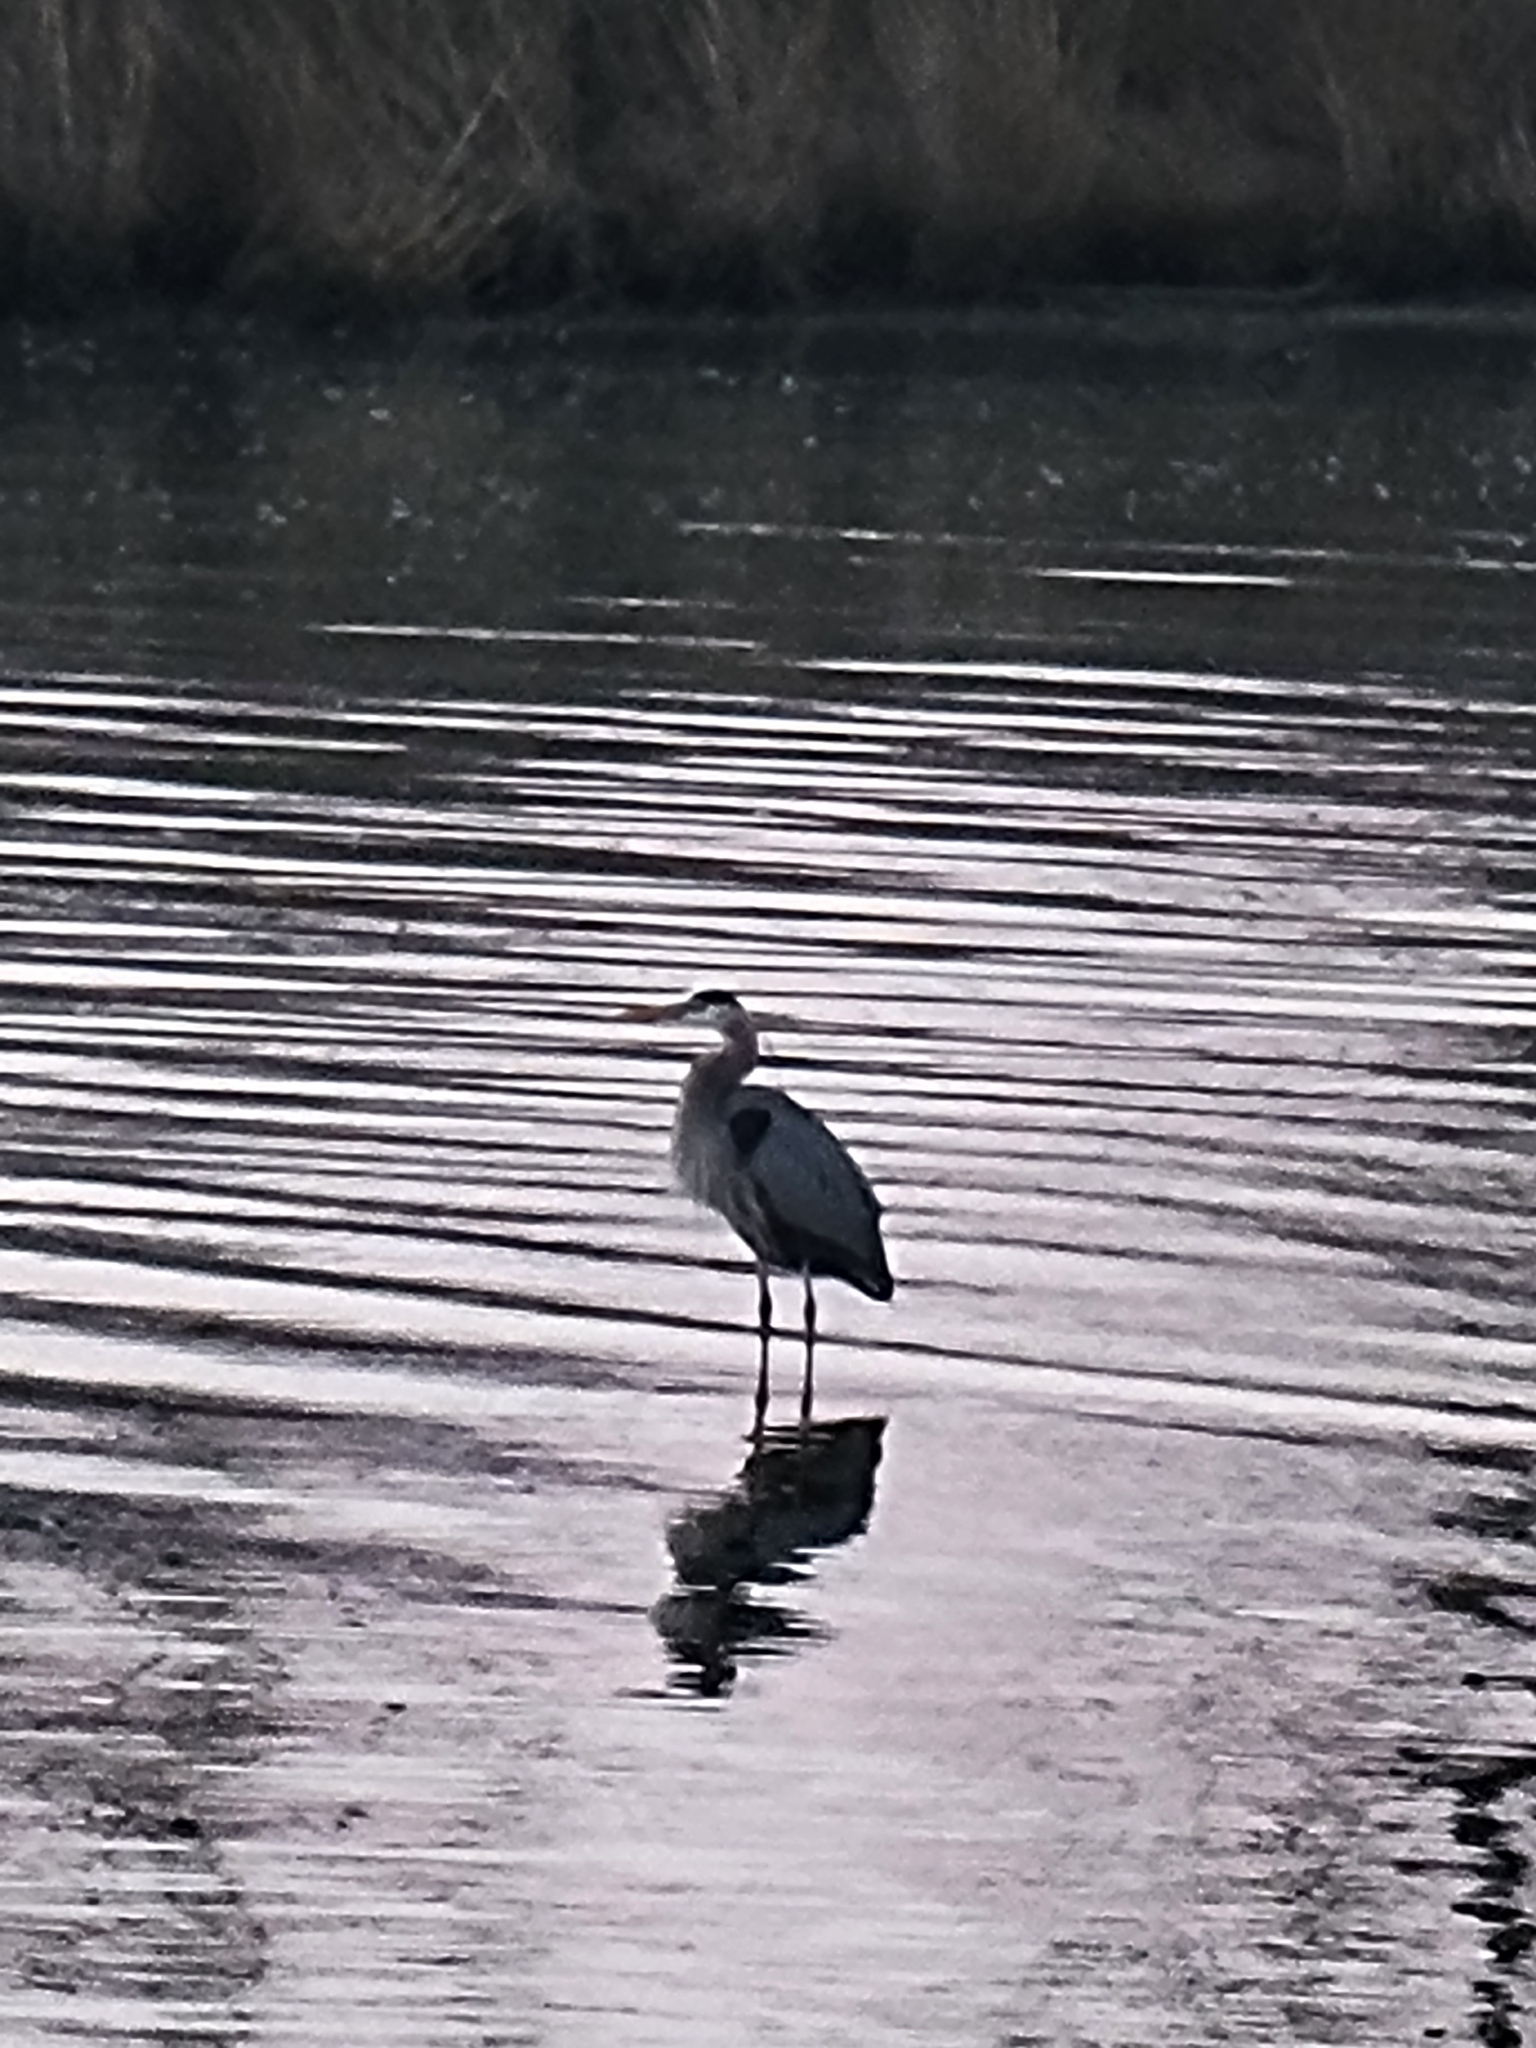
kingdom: Animalia
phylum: Chordata
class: Aves
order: Pelecaniformes
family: Ardeidae
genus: Ardea
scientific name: Ardea herodias
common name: Great blue heron
